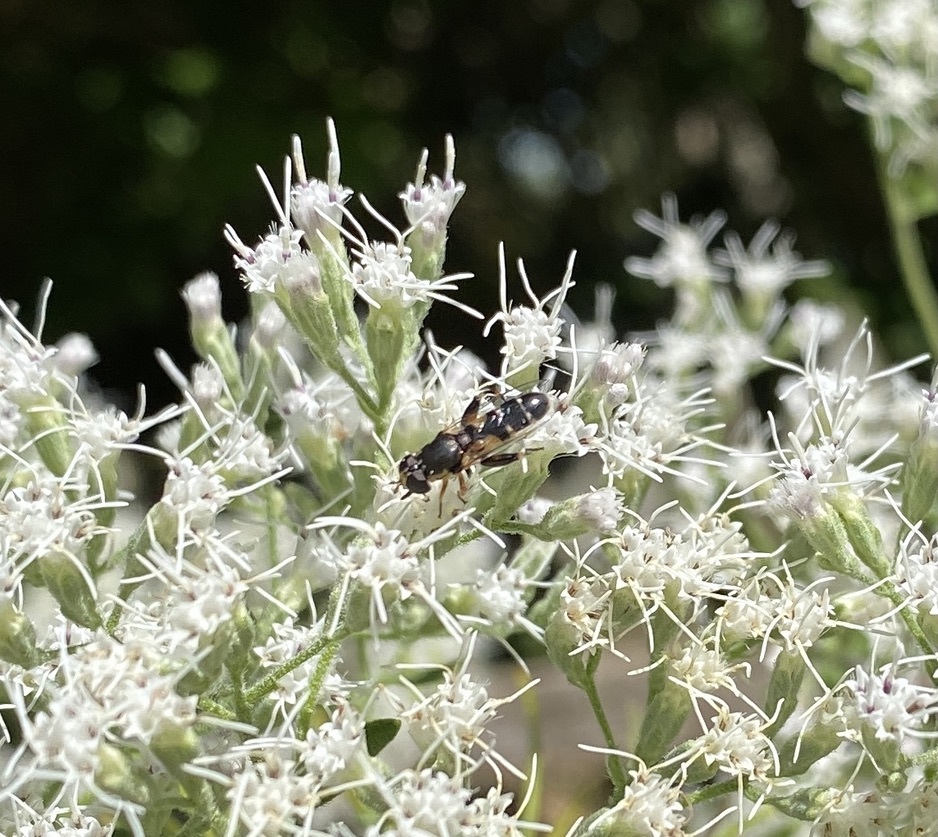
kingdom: Animalia
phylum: Arthropoda
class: Insecta
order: Diptera
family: Syrphidae
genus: Syritta
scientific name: Syritta pipiens
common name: Hover fly
